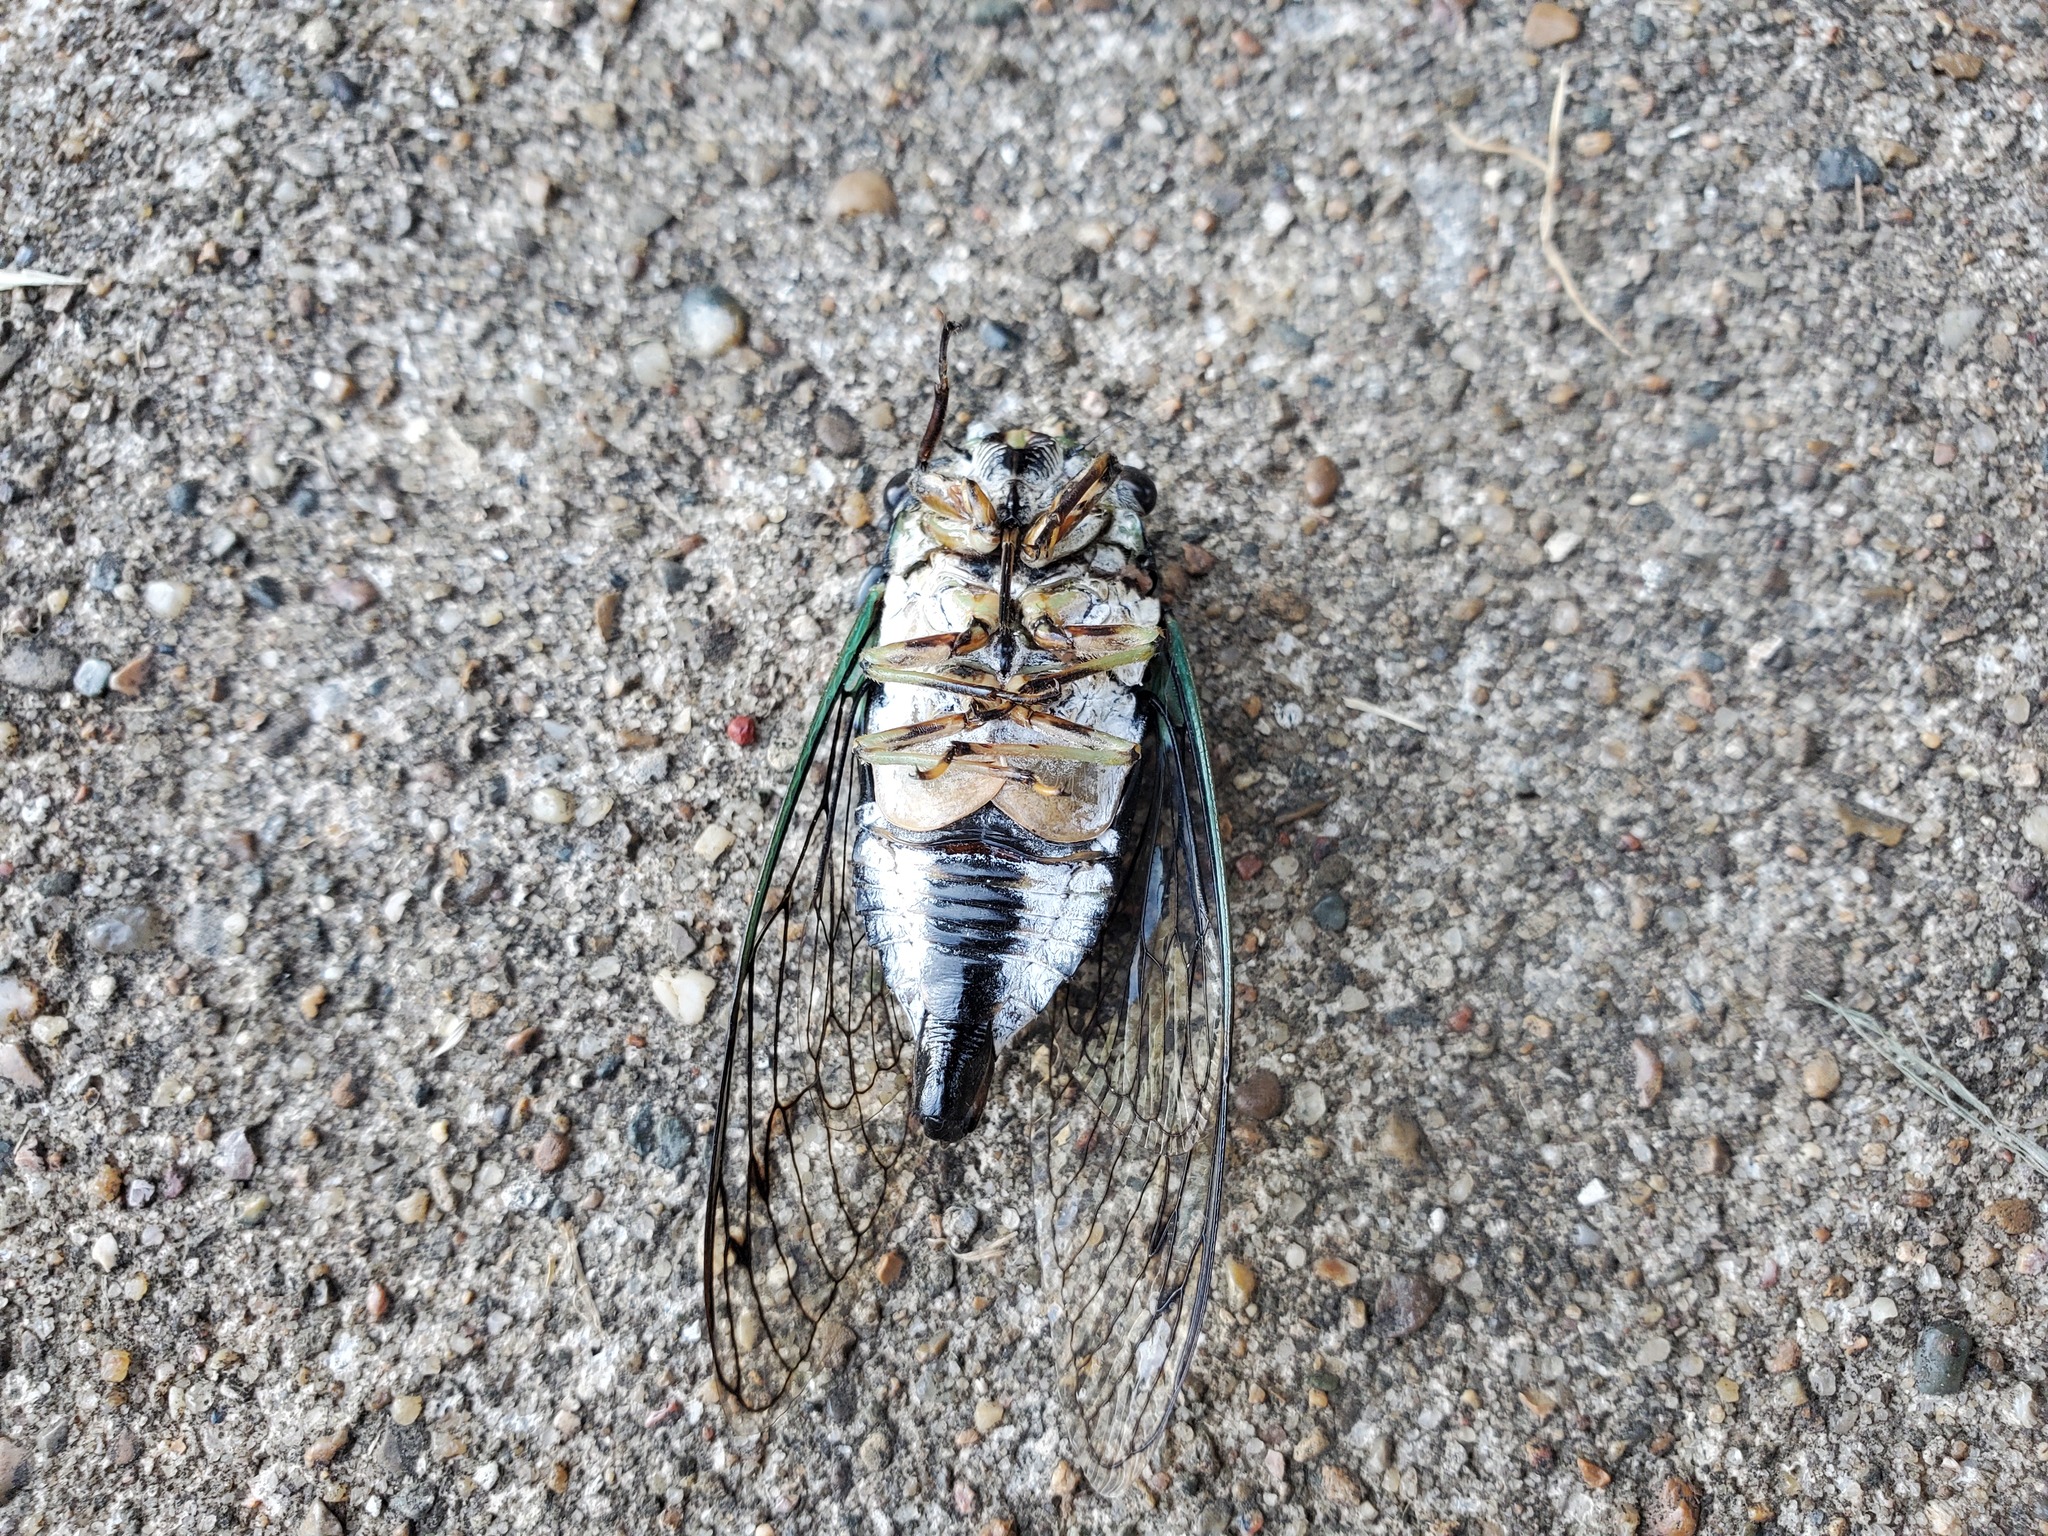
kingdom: Animalia
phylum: Arthropoda
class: Insecta
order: Hemiptera
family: Cicadidae
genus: Neotibicen
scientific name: Neotibicen robinsonianus
